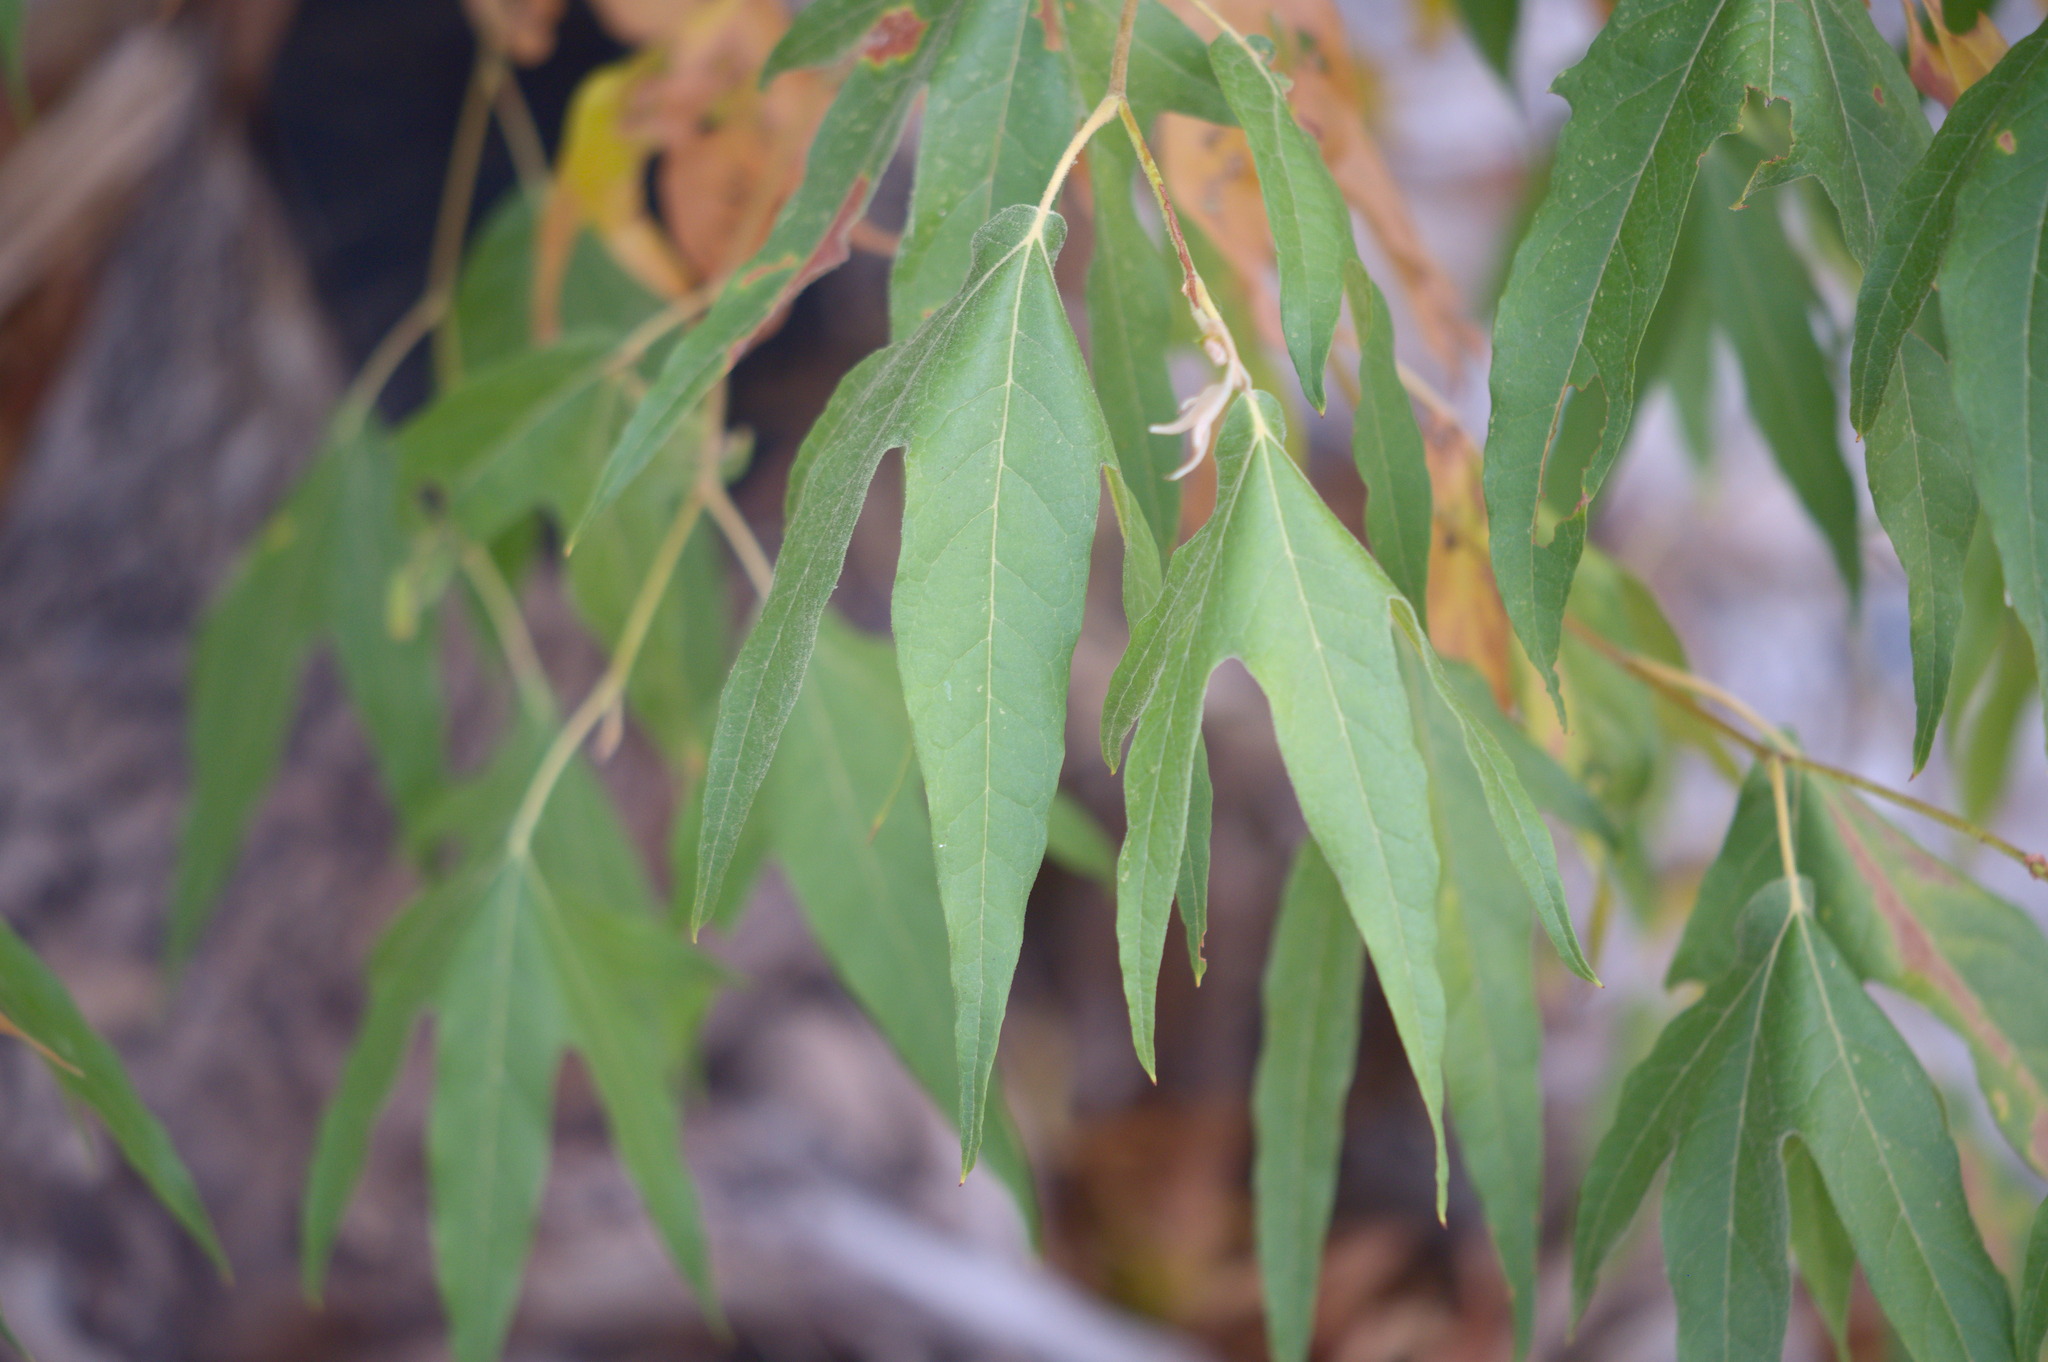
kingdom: Plantae
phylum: Tracheophyta
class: Magnoliopsida
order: Proteales
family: Platanaceae
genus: Platanus
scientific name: Platanus wrightii
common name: Arizona sycamore
